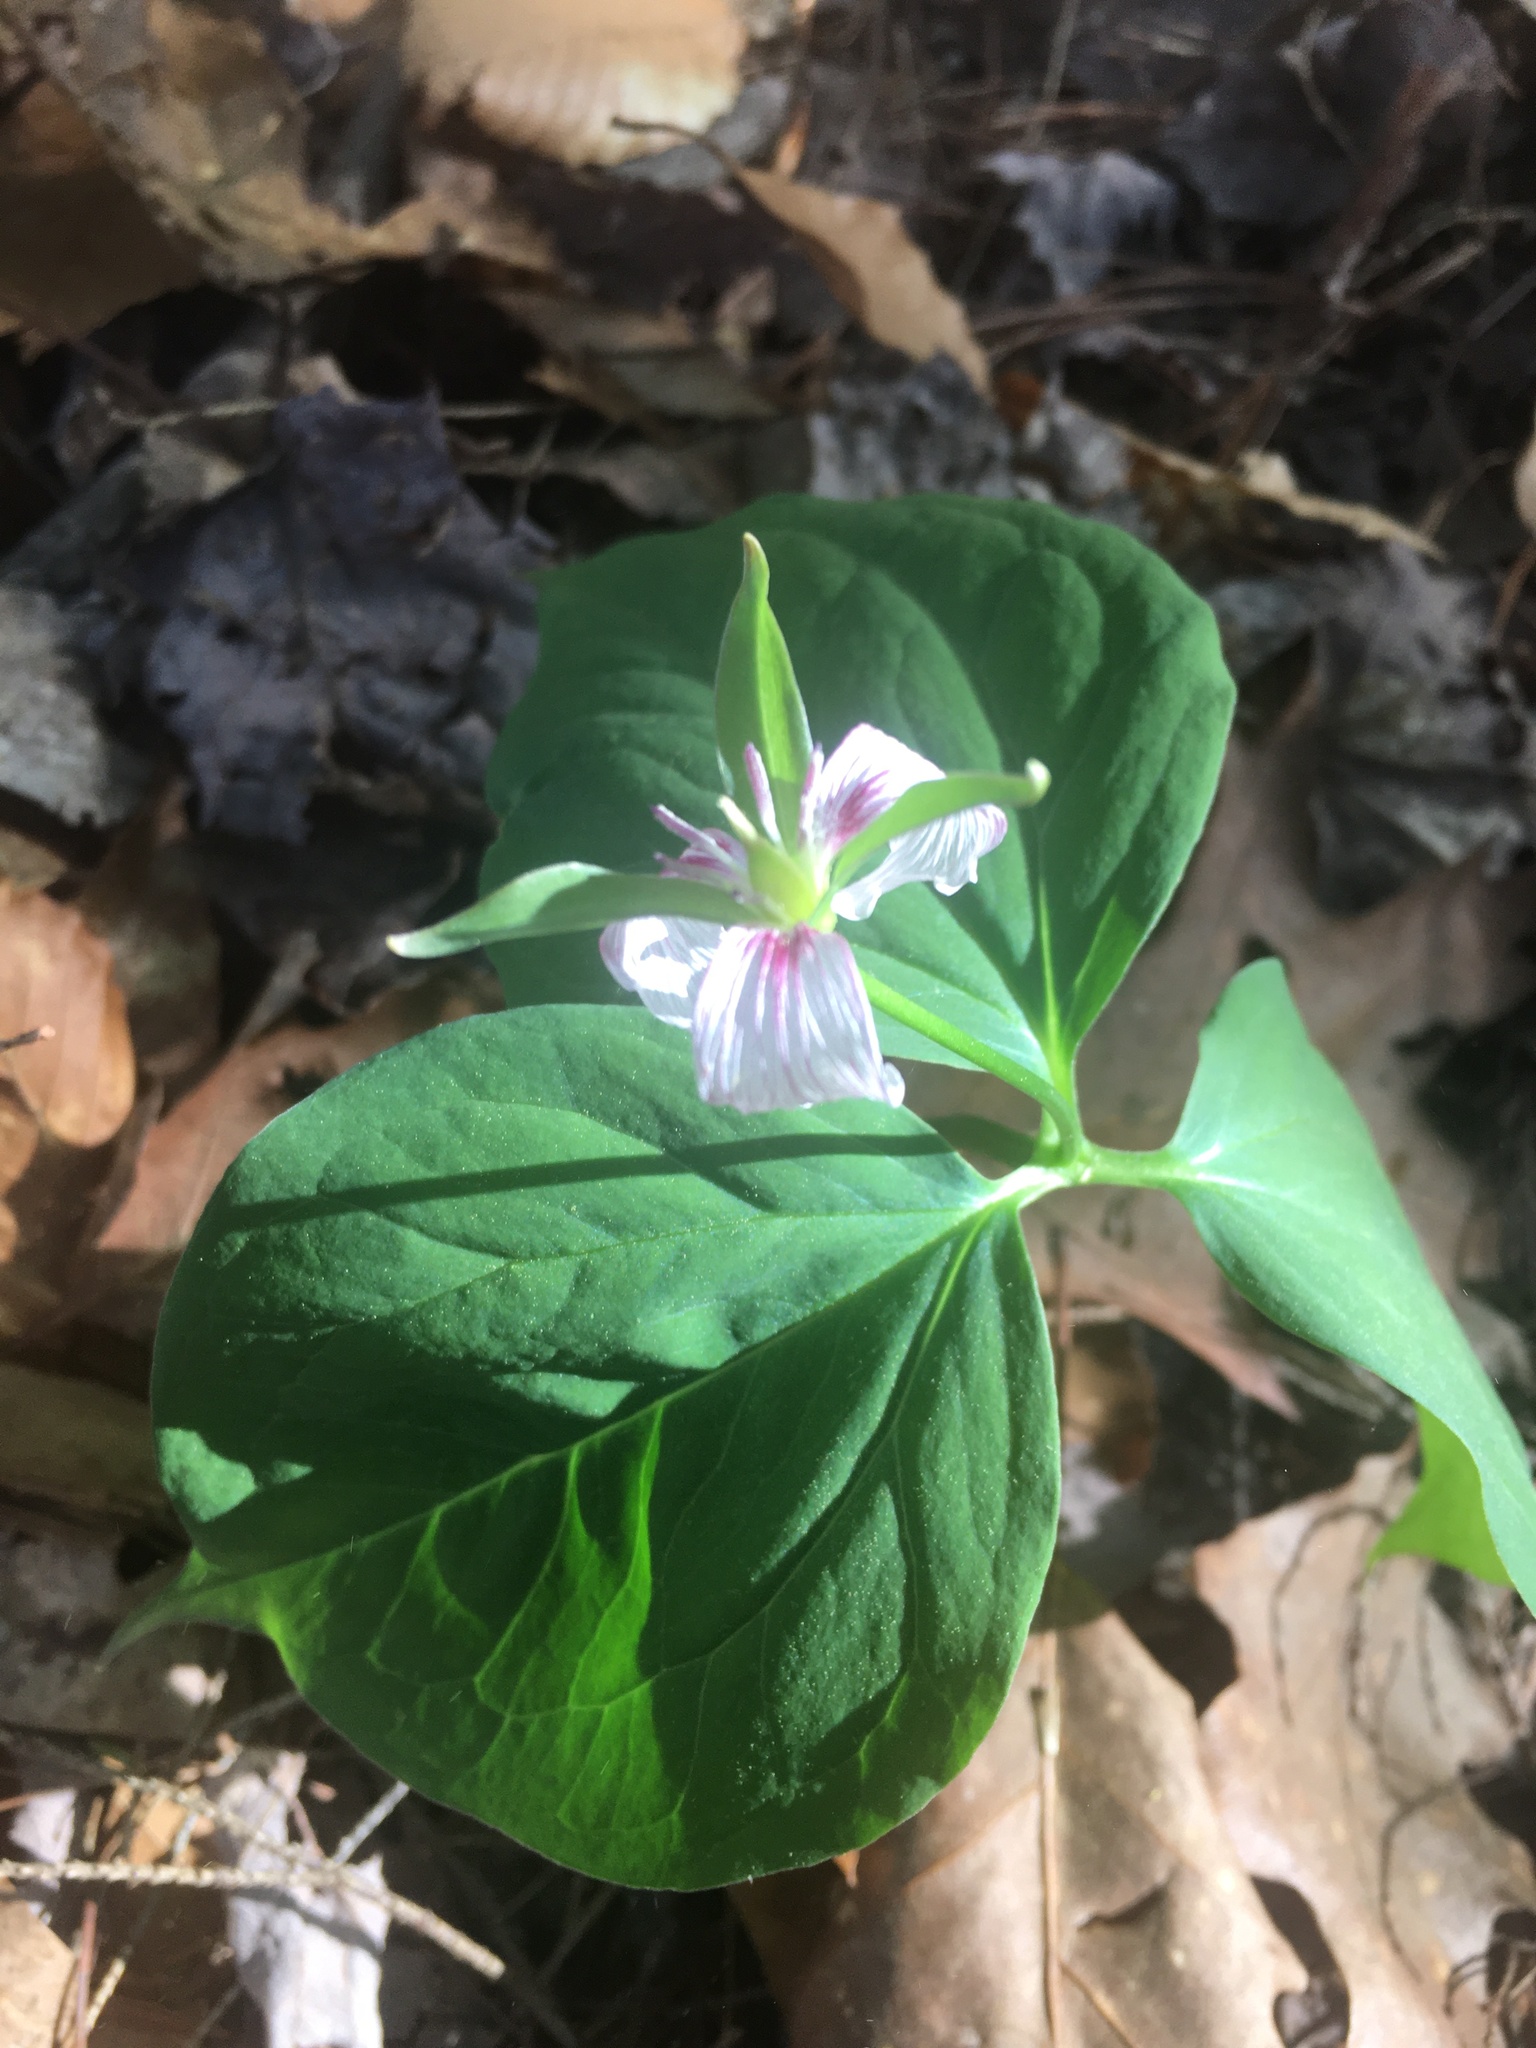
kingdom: Plantae
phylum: Tracheophyta
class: Liliopsida
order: Liliales
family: Melanthiaceae
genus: Trillium
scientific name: Trillium undulatum
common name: Paint trillium
